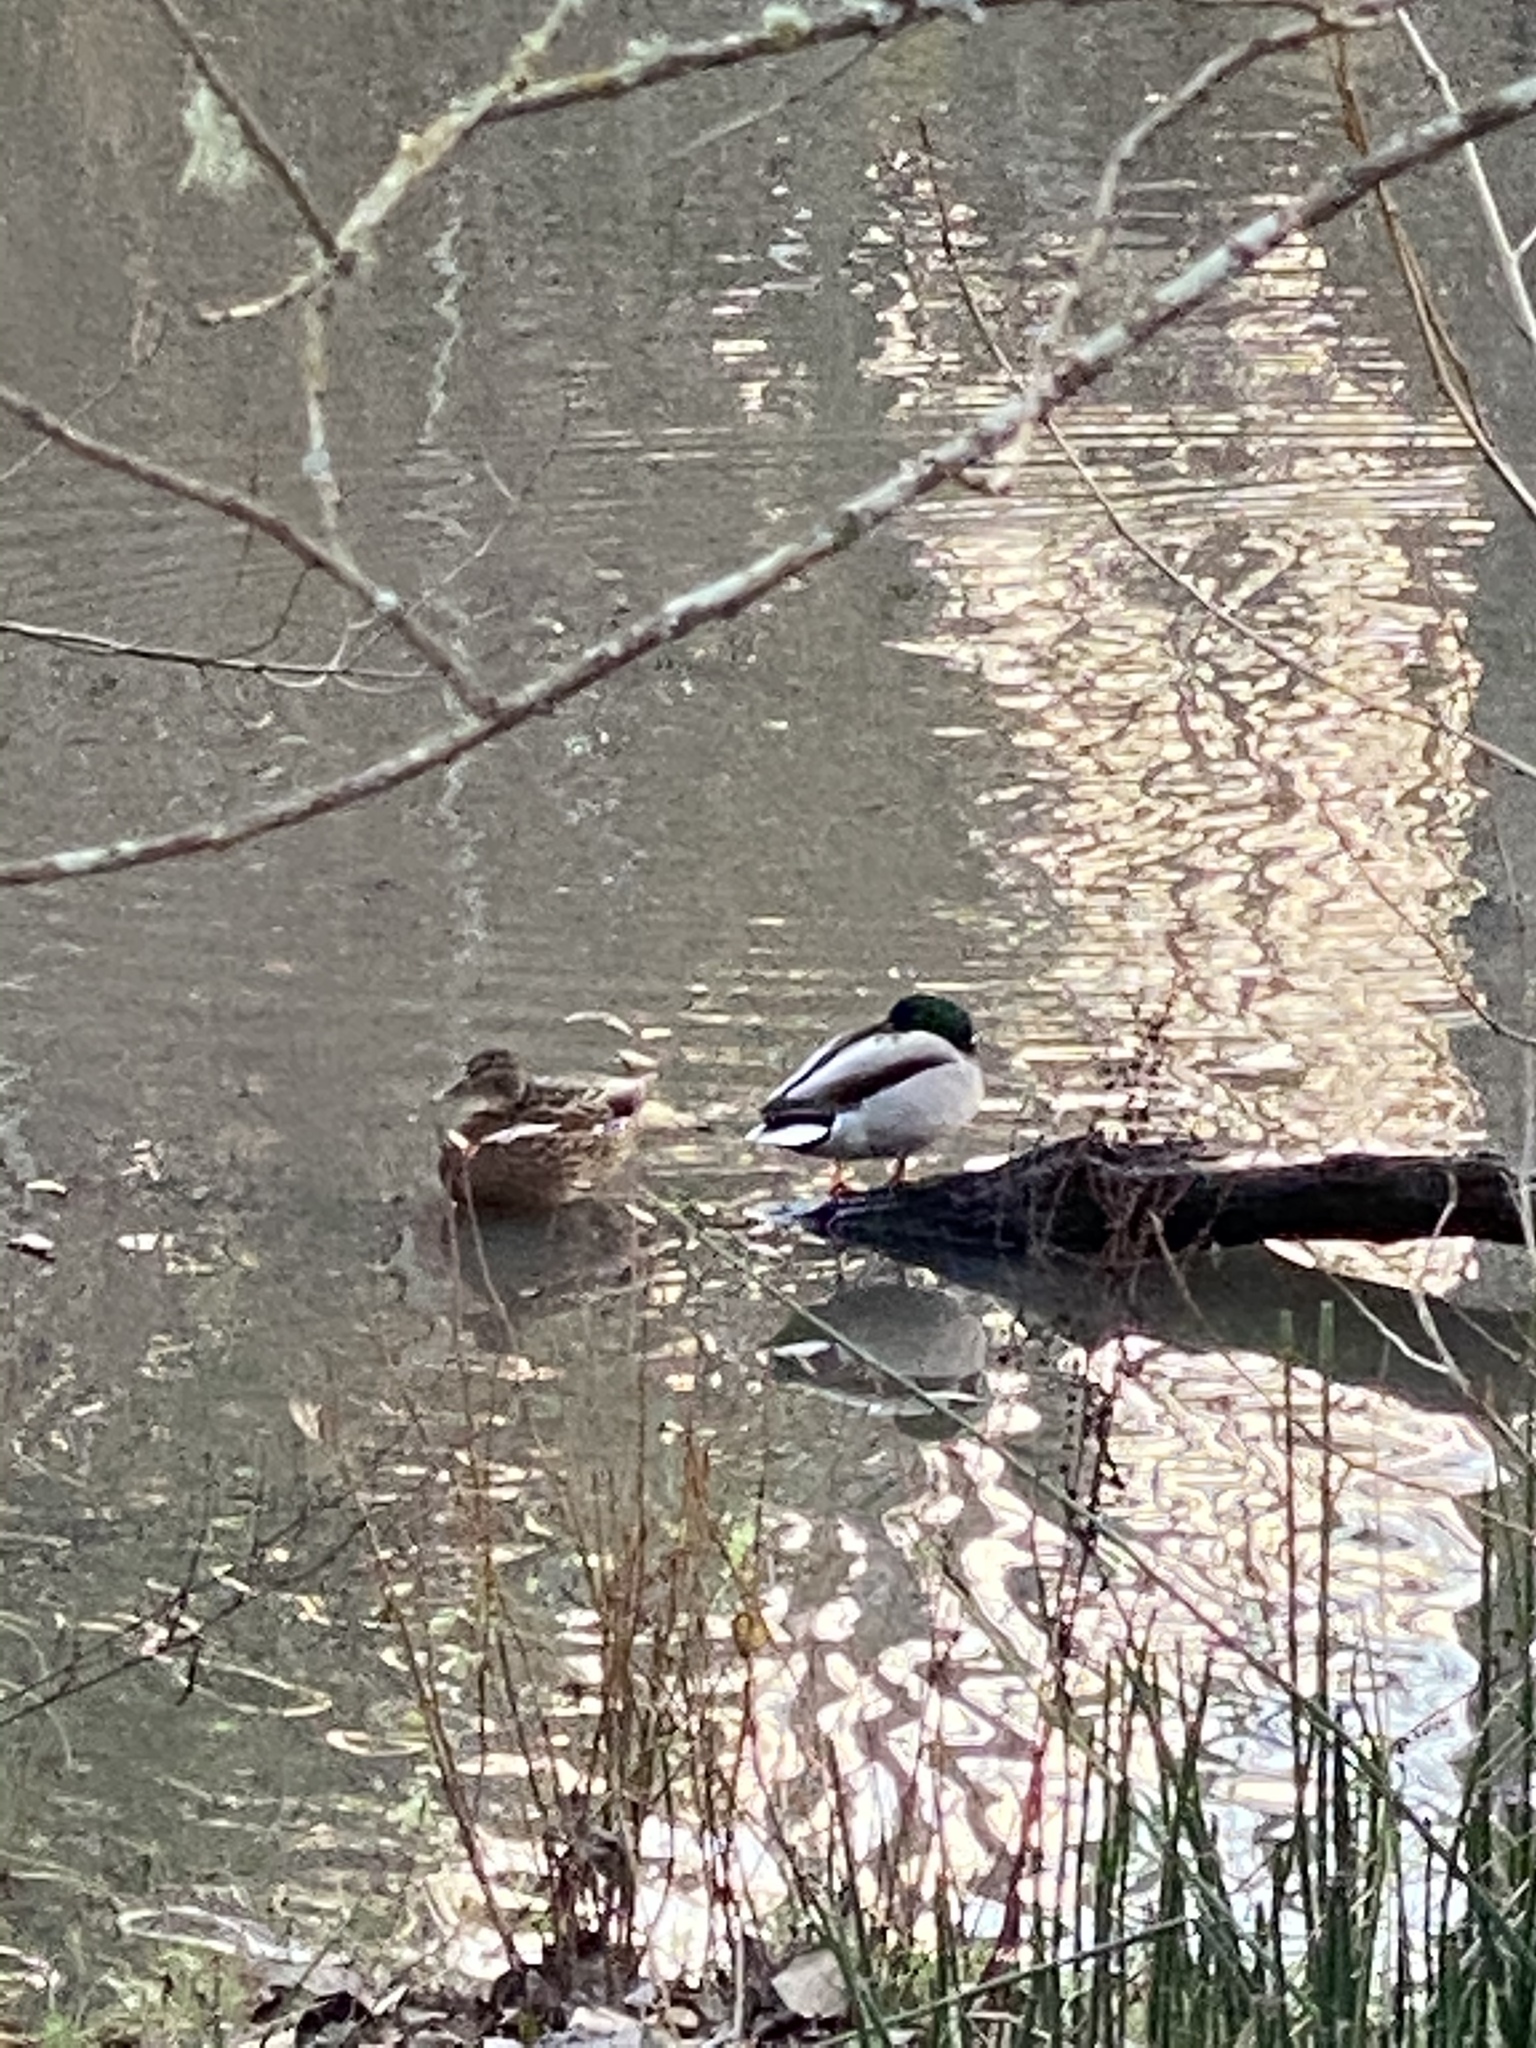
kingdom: Animalia
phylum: Chordata
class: Aves
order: Anseriformes
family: Anatidae
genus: Anas
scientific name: Anas platyrhynchos
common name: Mallard
